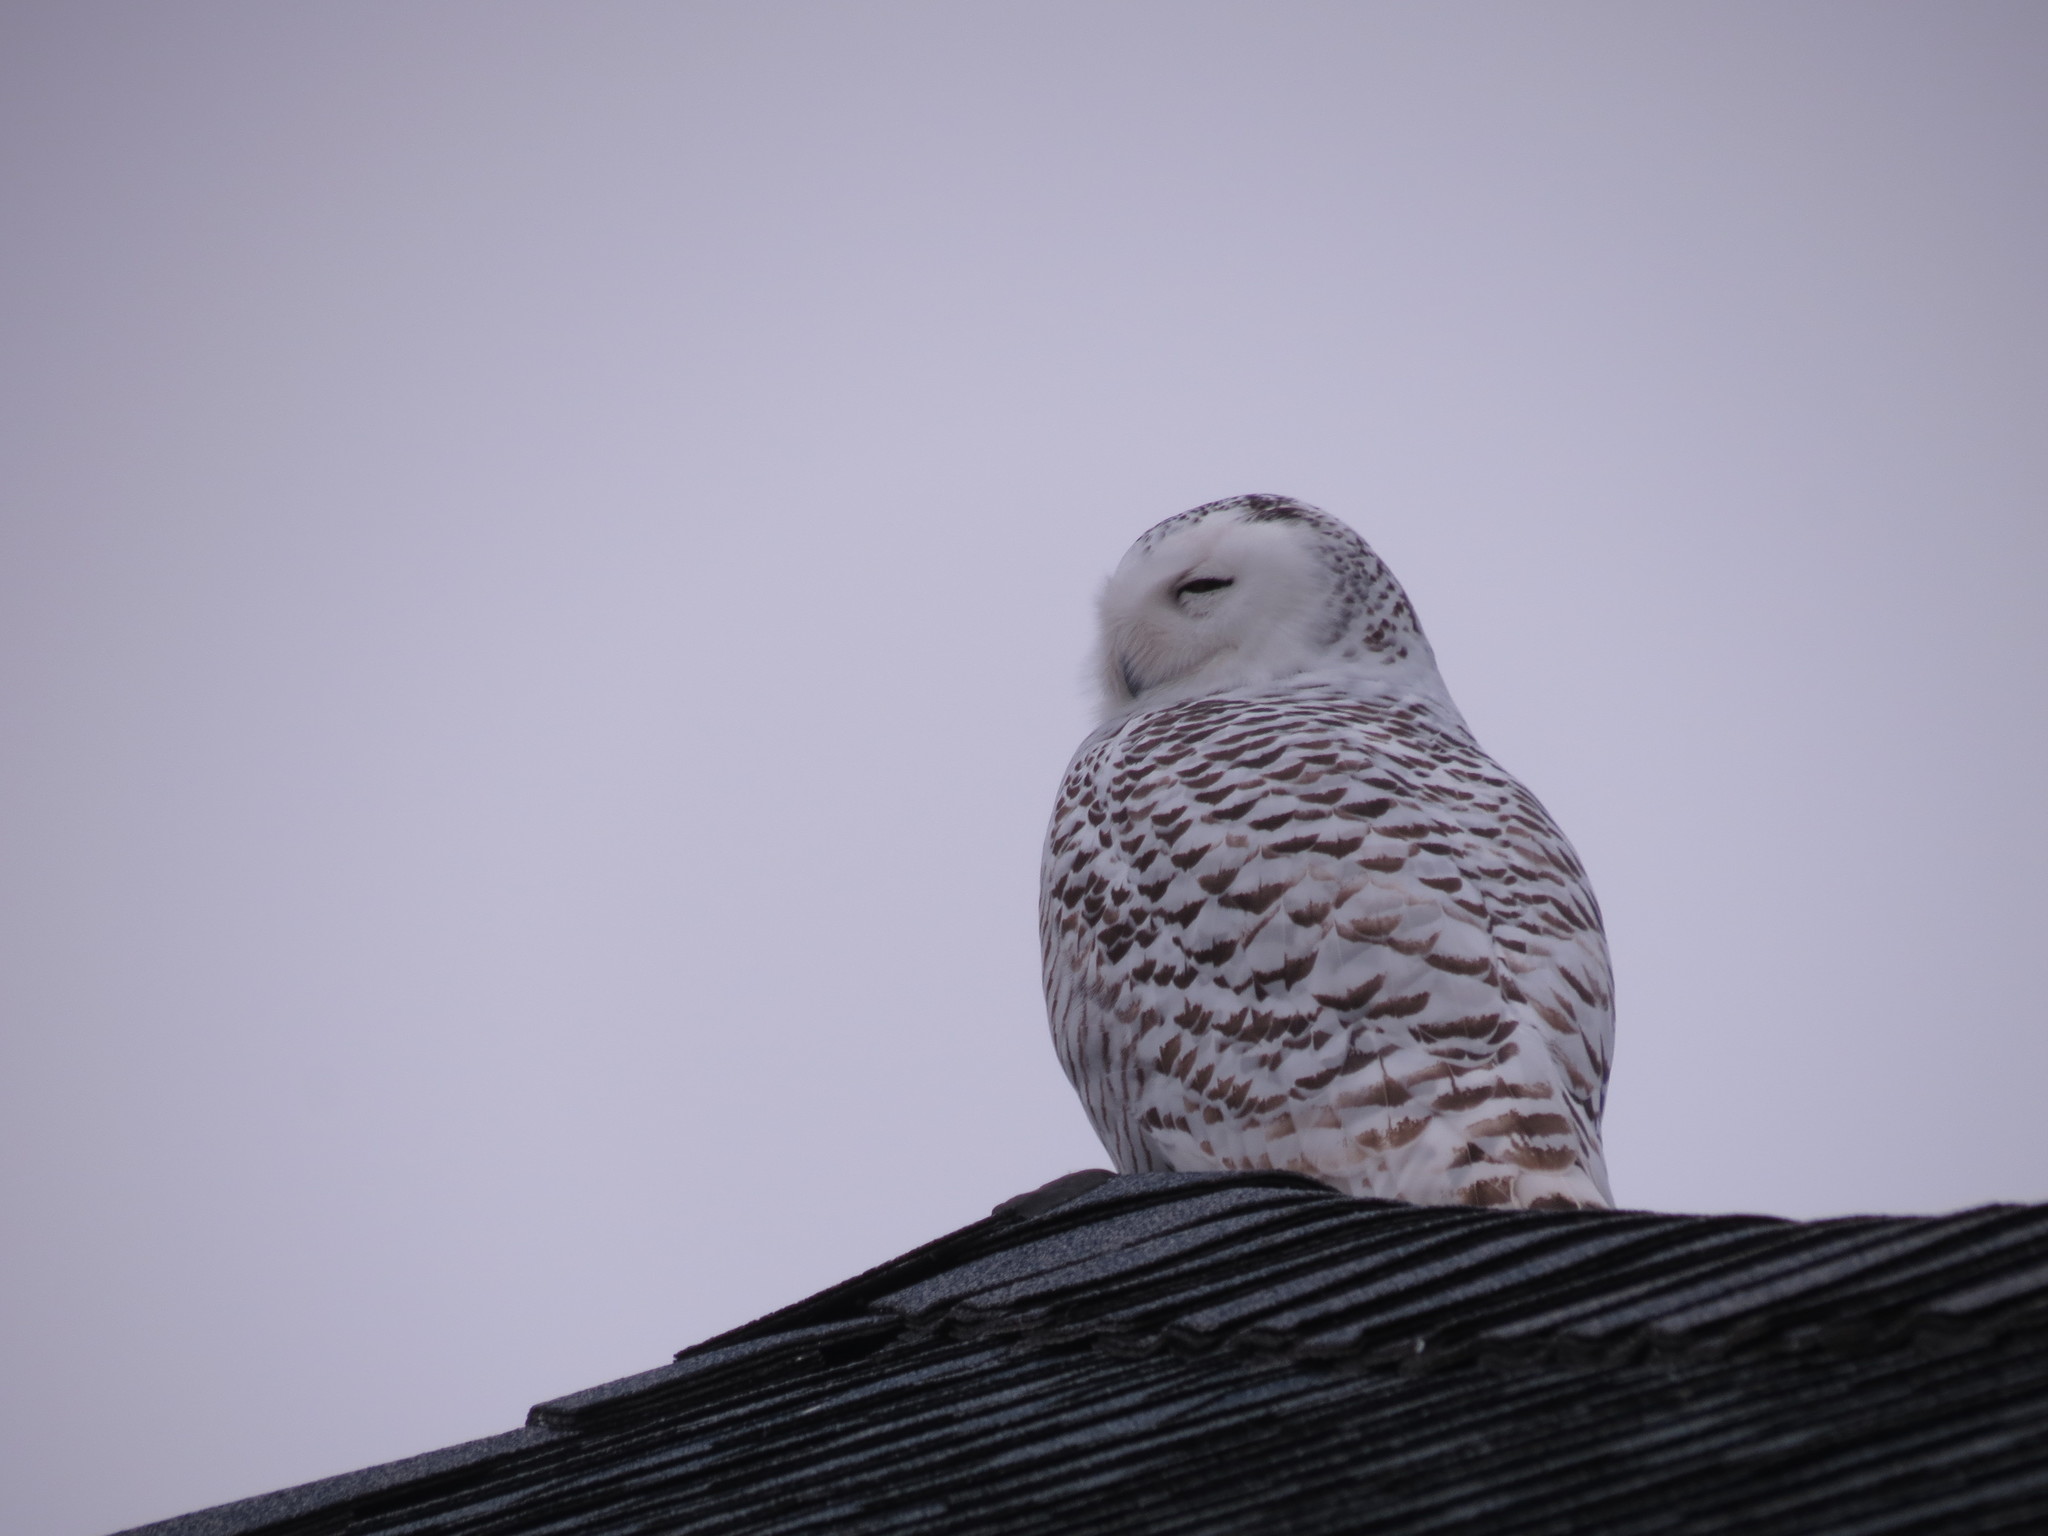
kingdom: Animalia
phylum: Chordata
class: Aves
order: Strigiformes
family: Strigidae
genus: Bubo
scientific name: Bubo scandiacus
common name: Snowy owl
